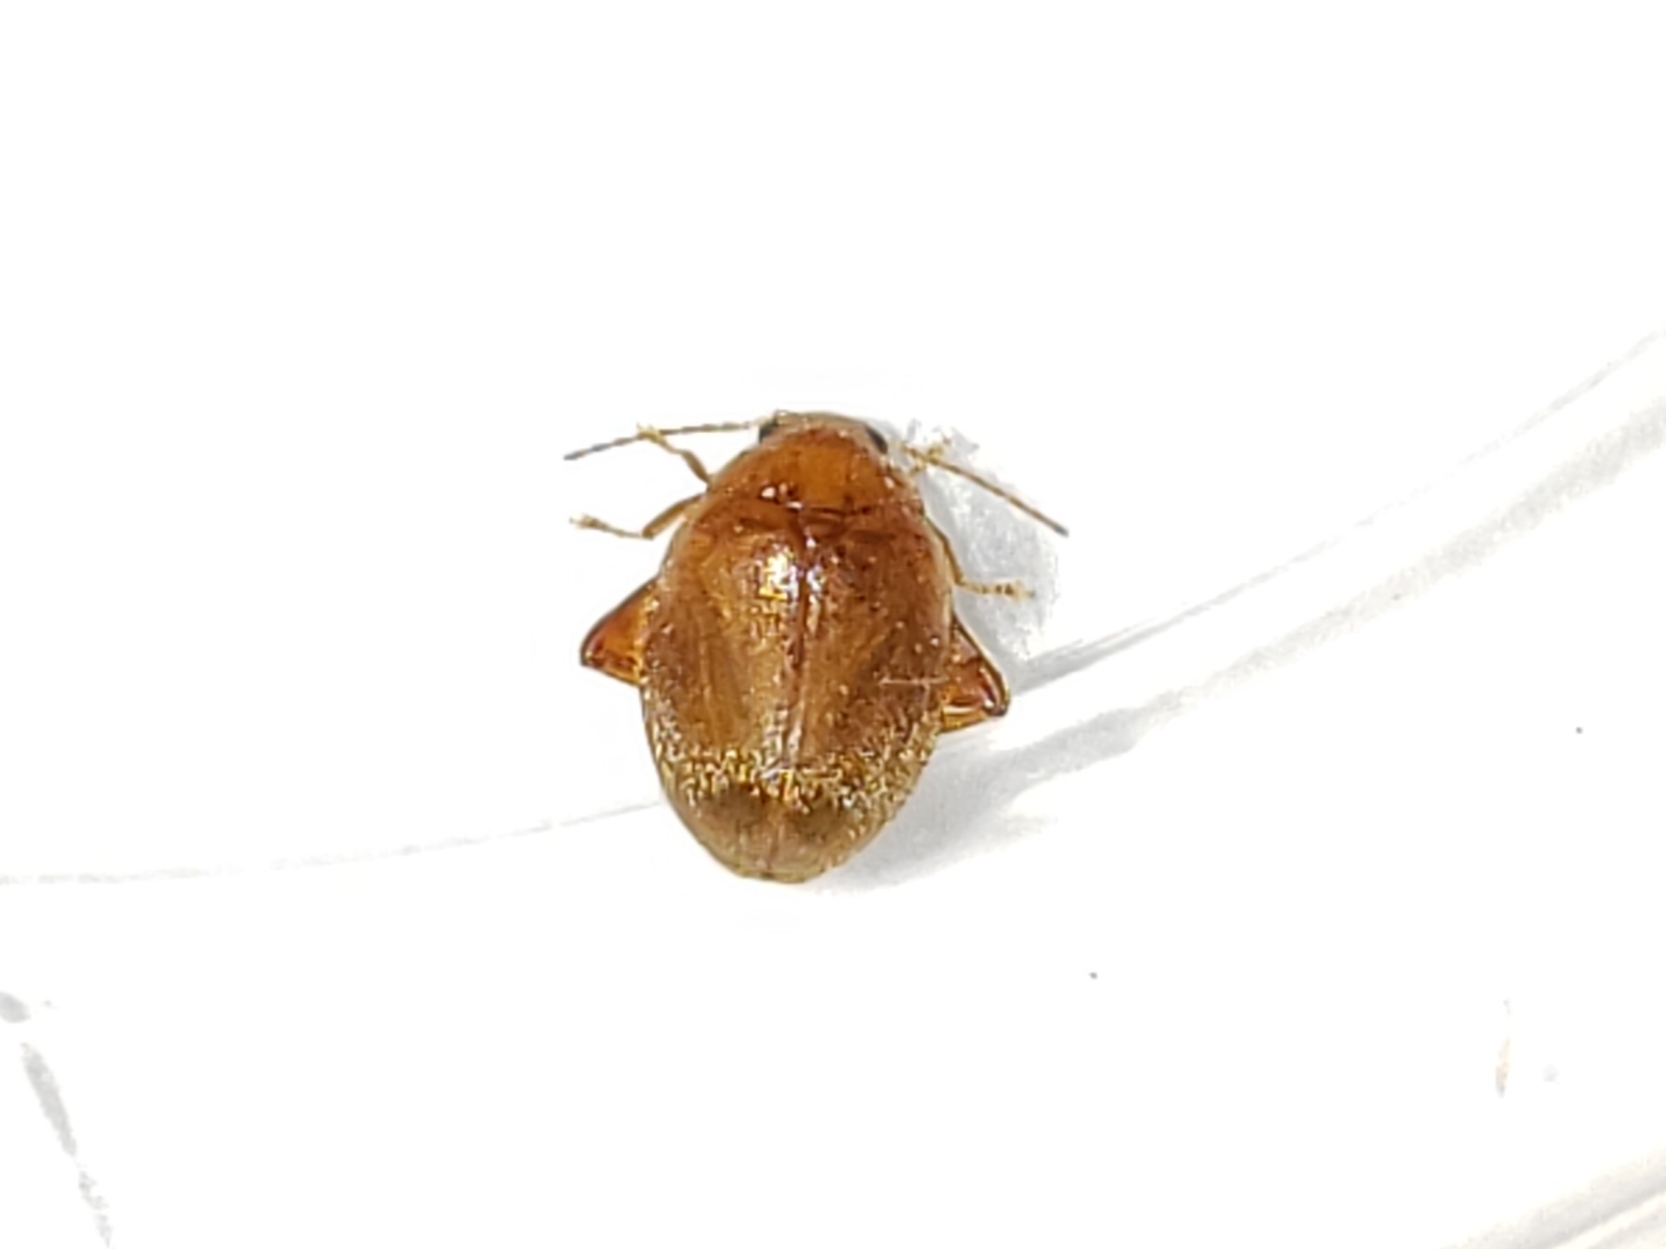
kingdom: Animalia
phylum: Arthropoda
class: Insecta
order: Coleoptera
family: Scirtidae
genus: Scirtes
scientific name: Scirtes tibialis
